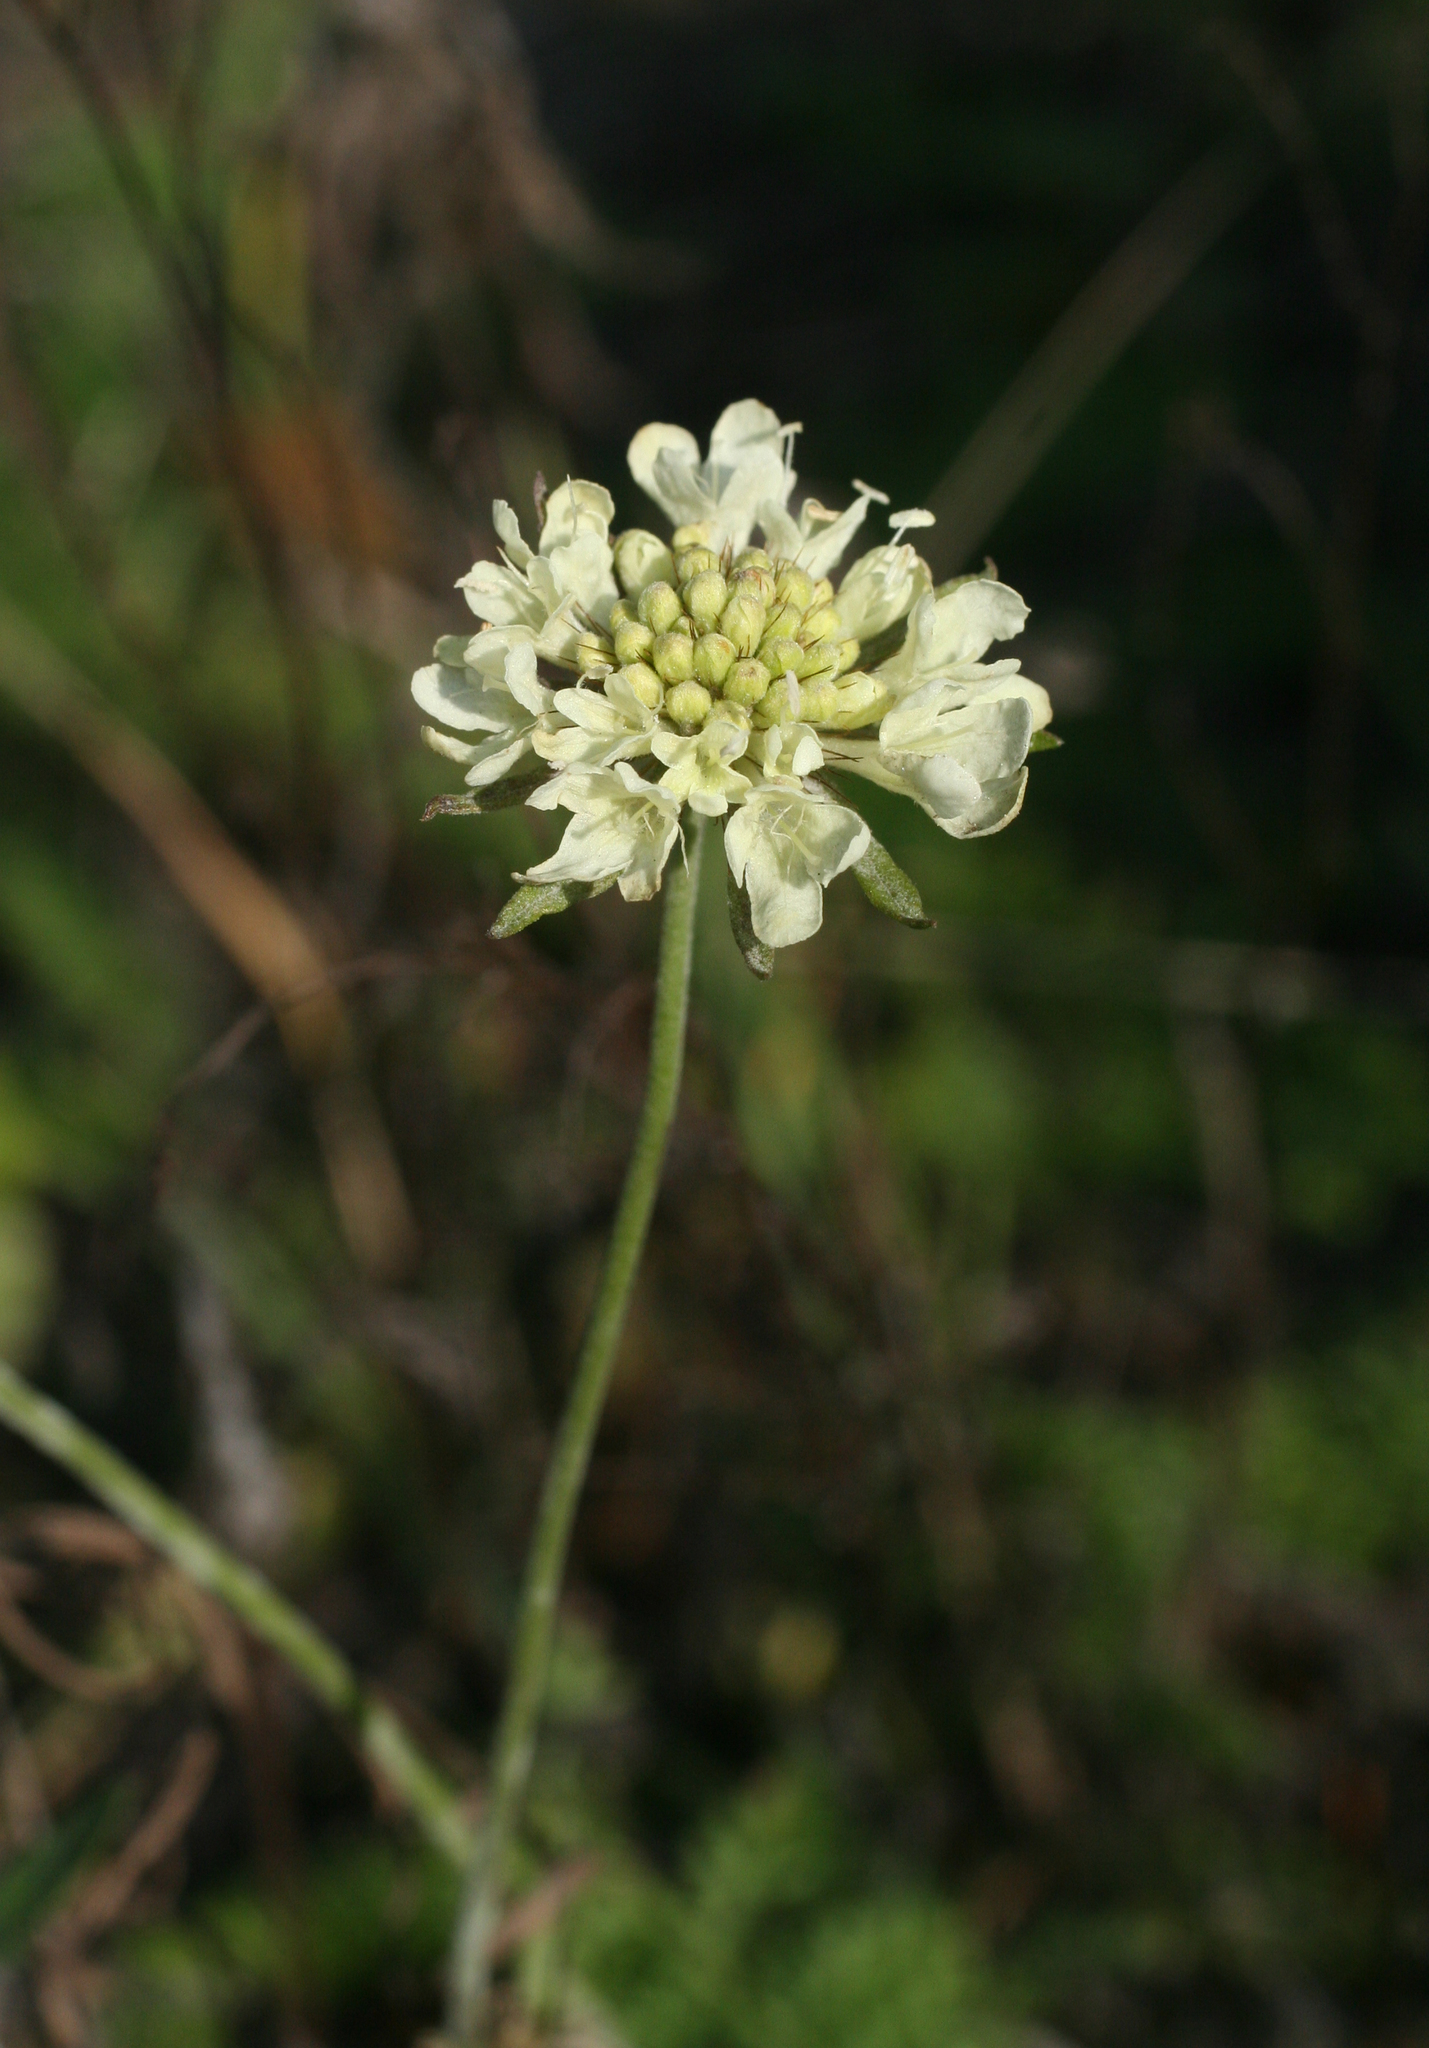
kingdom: Plantae
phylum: Tracheophyta
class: Magnoliopsida
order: Dipsacales
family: Caprifoliaceae
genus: Scabiosa
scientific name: Scabiosa ochroleuca
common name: Cream pincushions
